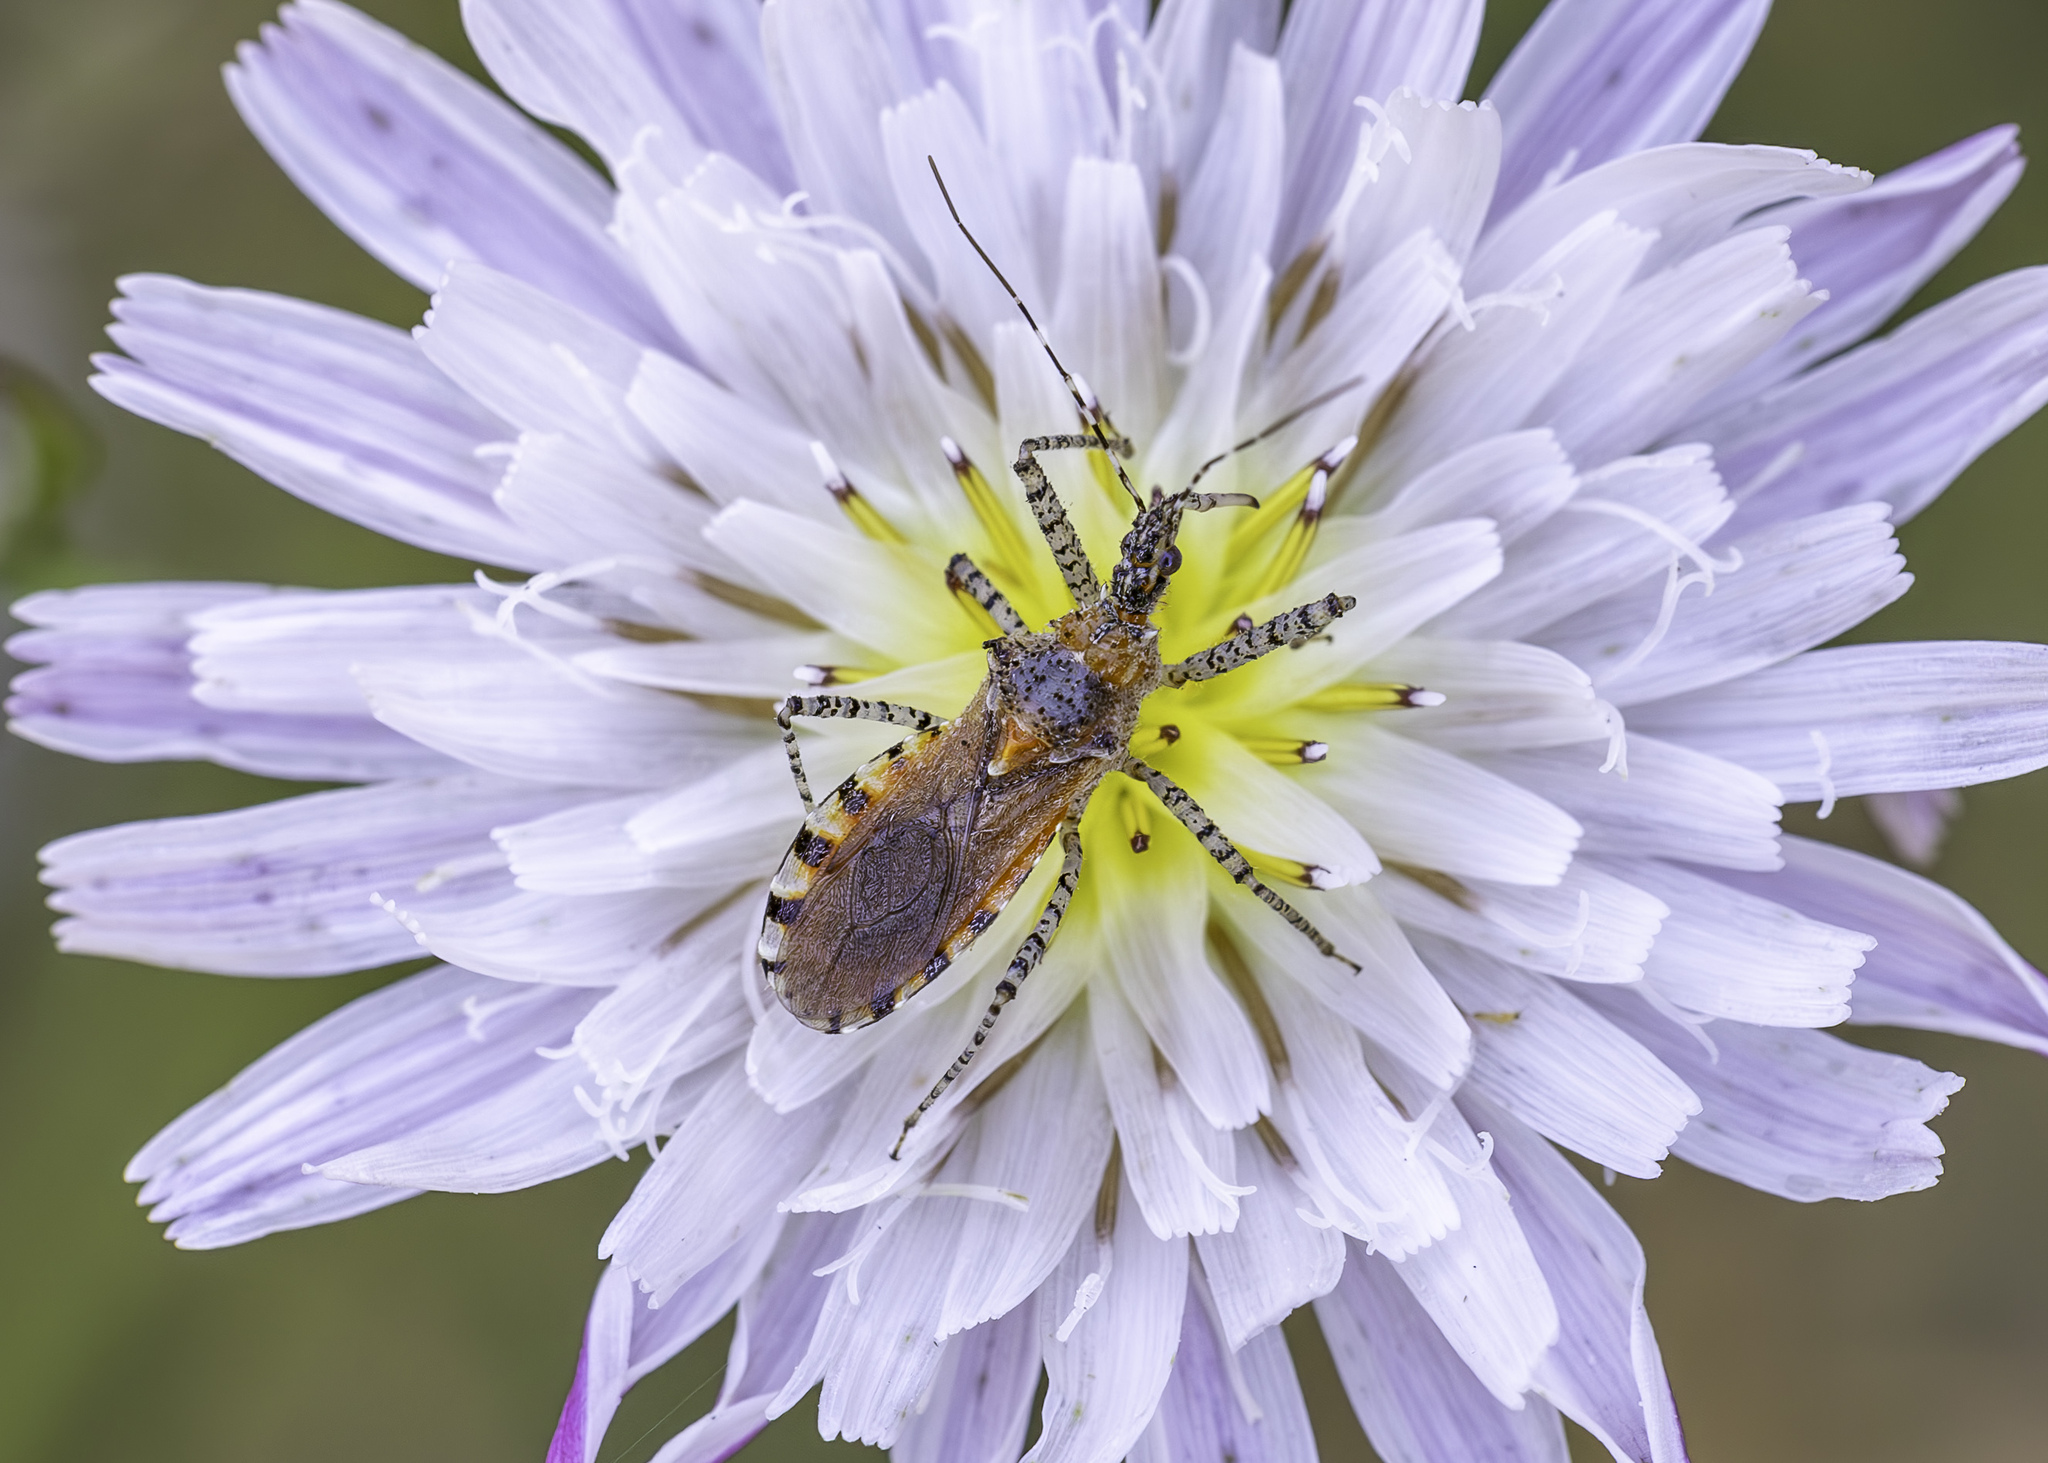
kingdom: Animalia
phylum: Arthropoda
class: Insecta
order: Hemiptera
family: Reduviidae
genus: Pselliopus
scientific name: Pselliopus spinicollis
